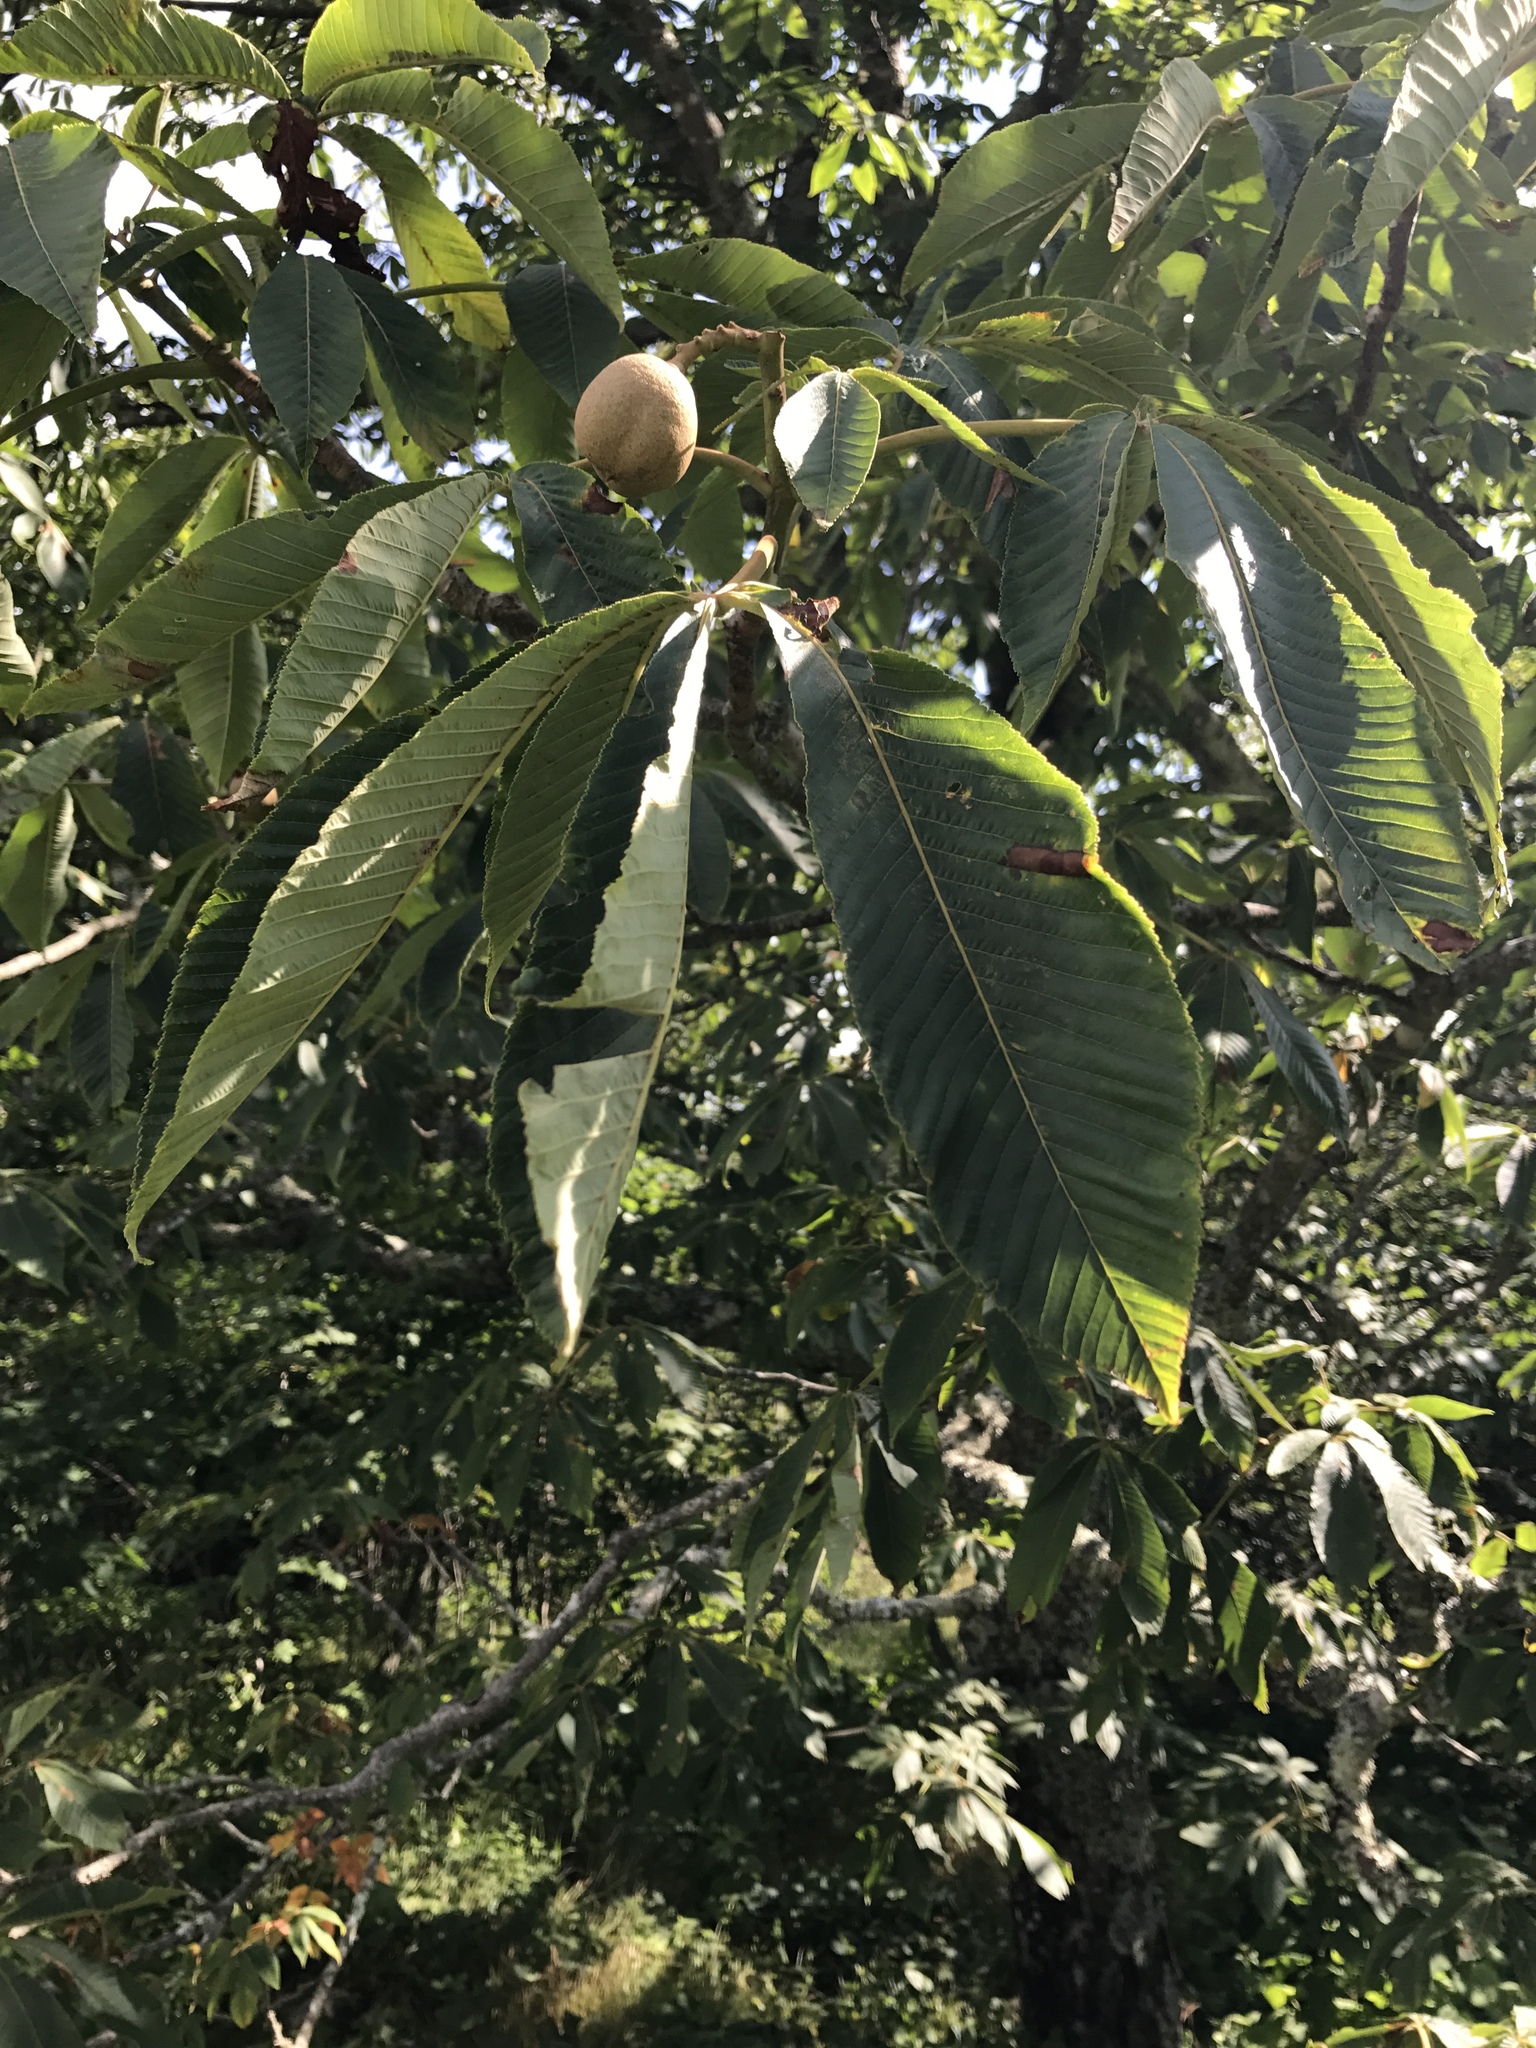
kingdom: Plantae
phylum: Tracheophyta
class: Magnoliopsida
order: Sapindales
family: Sapindaceae
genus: Aesculus
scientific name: Aesculus flava
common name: Yellow buckeye
